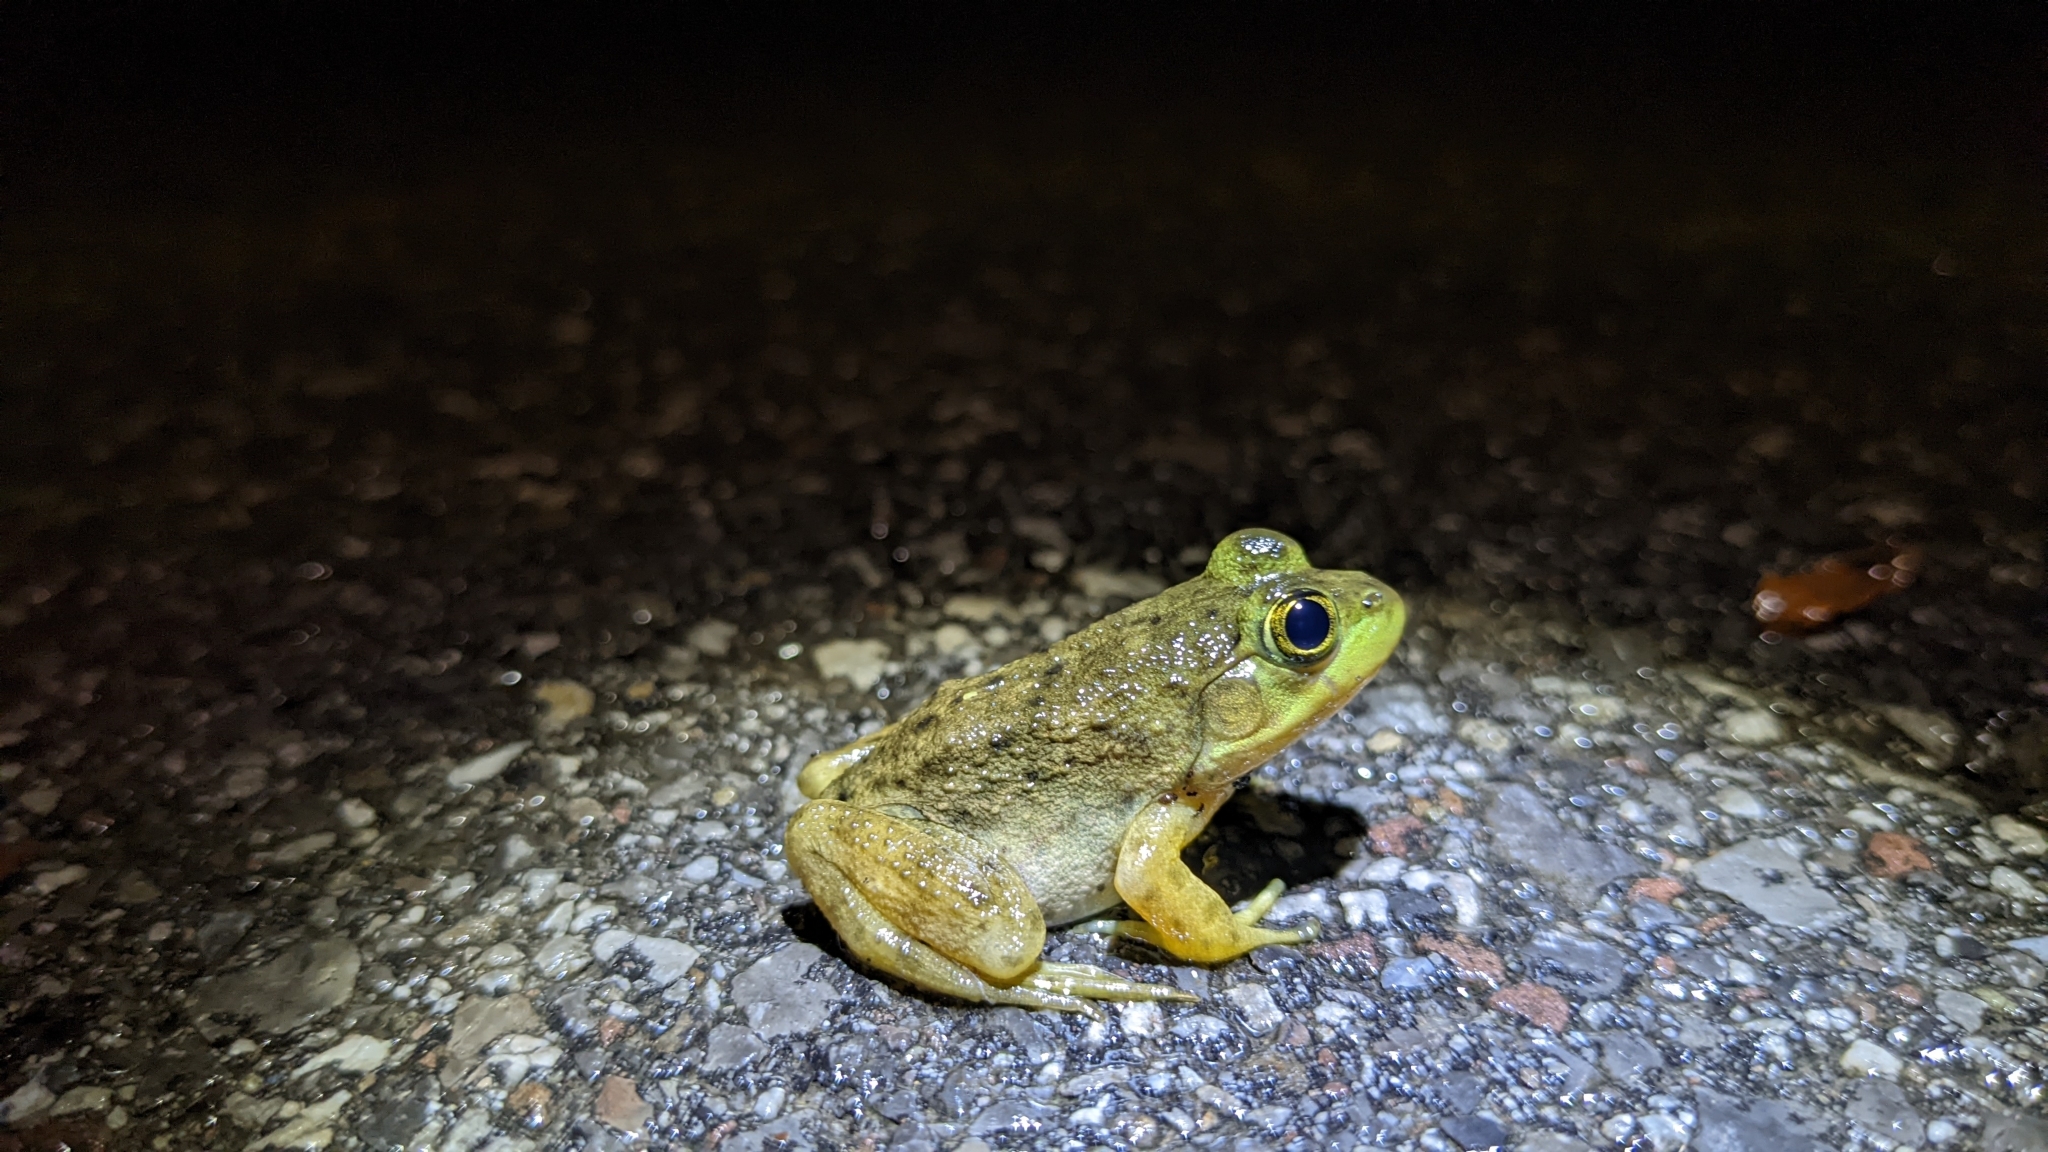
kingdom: Animalia
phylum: Chordata
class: Amphibia
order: Anura
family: Ranidae
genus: Lithobates
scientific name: Lithobates catesbeianus
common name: American bullfrog
